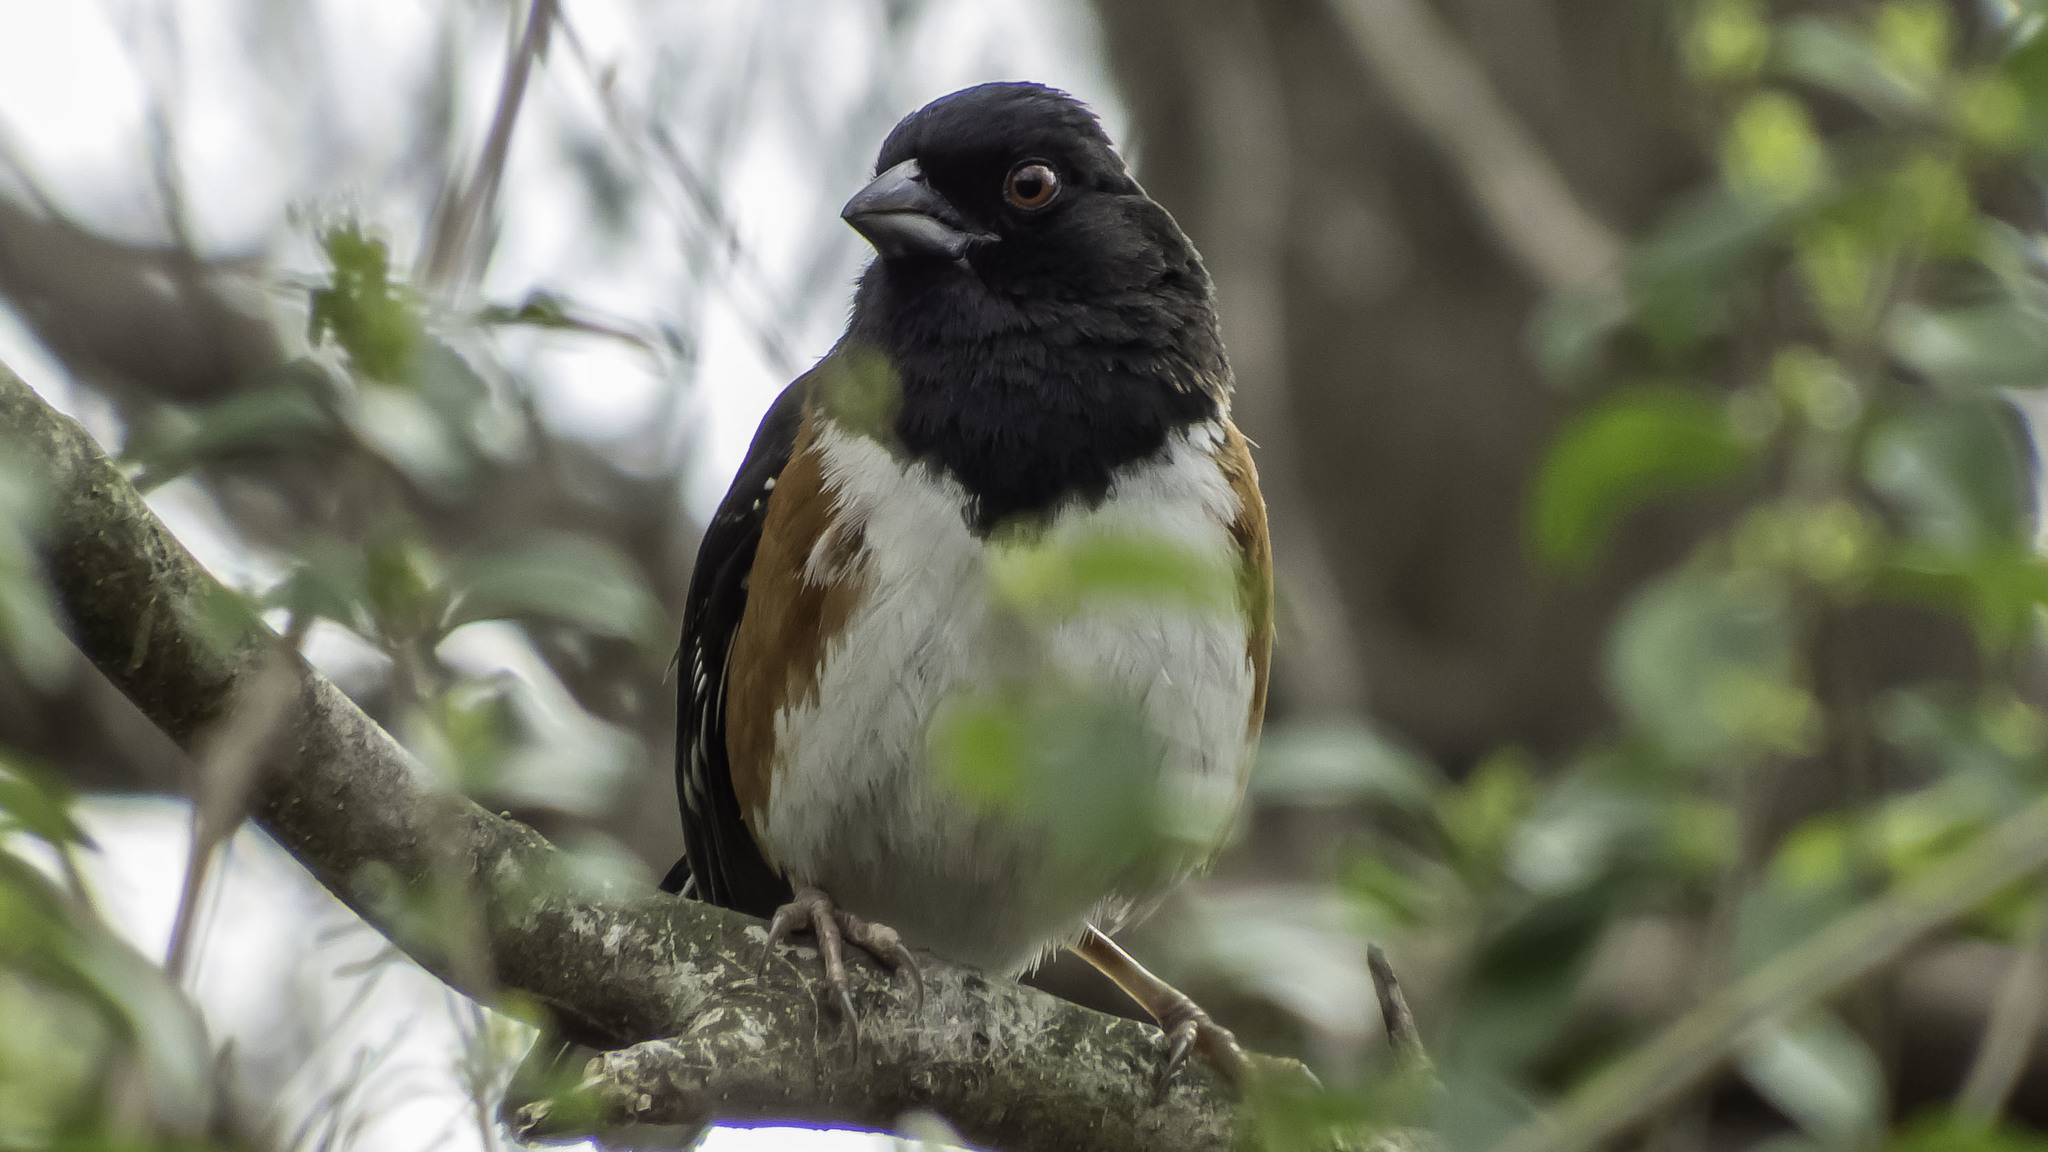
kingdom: Animalia
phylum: Chordata
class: Aves
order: Passeriformes
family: Passerellidae
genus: Pipilo
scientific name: Pipilo erythrophthalmus
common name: Eastern towhee
